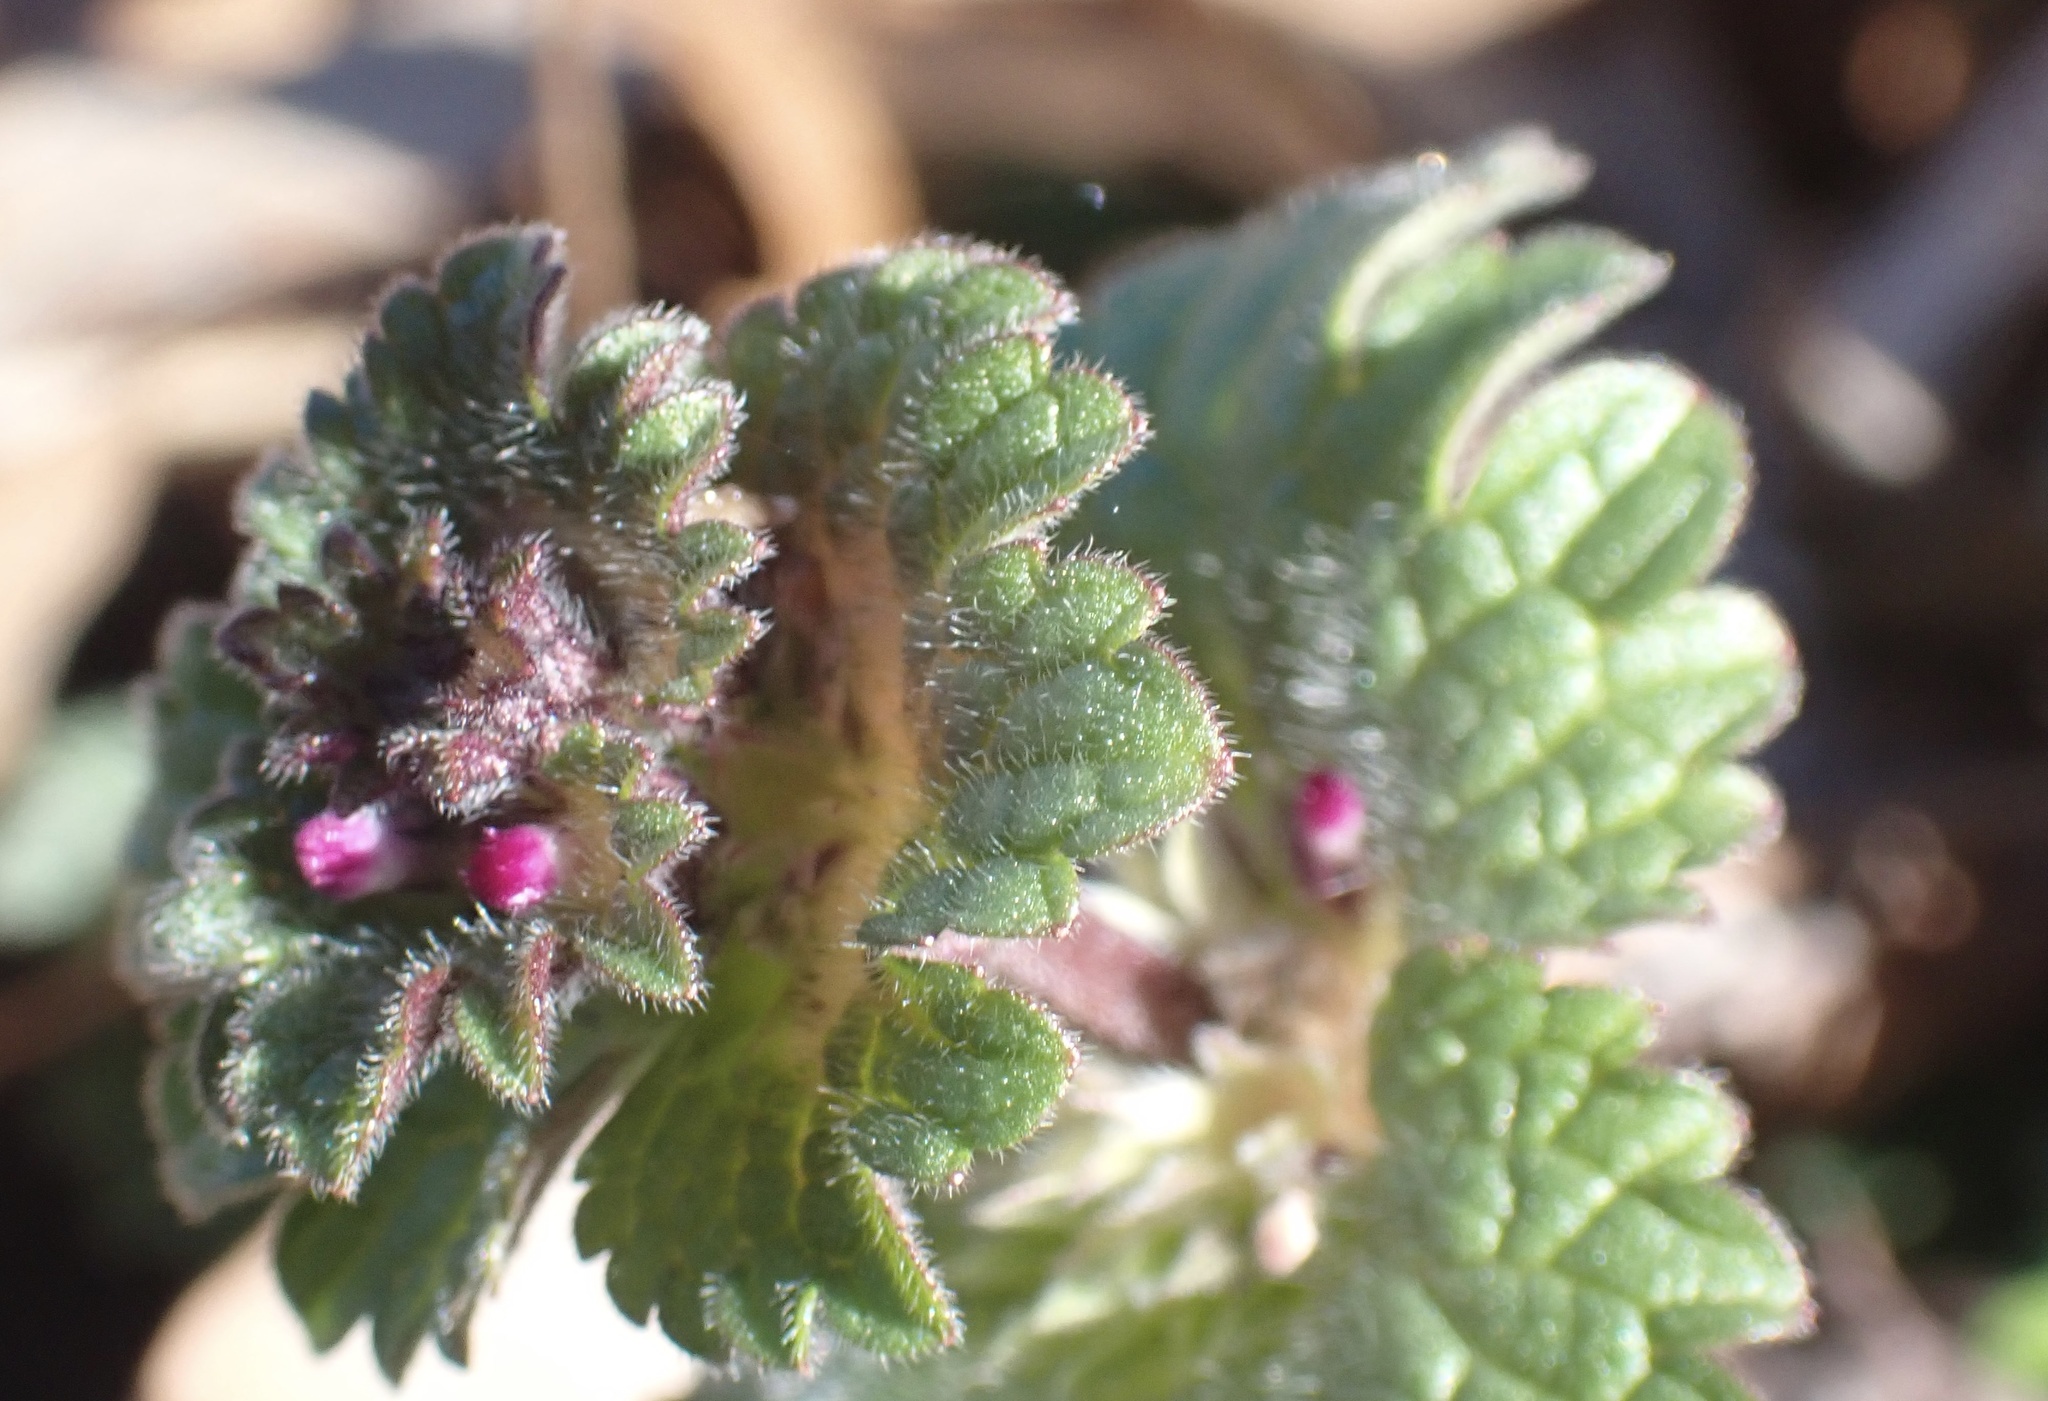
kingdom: Plantae
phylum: Tracheophyta
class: Magnoliopsida
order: Lamiales
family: Lamiaceae
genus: Lamium
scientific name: Lamium amplexicaule
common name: Henbit dead-nettle
